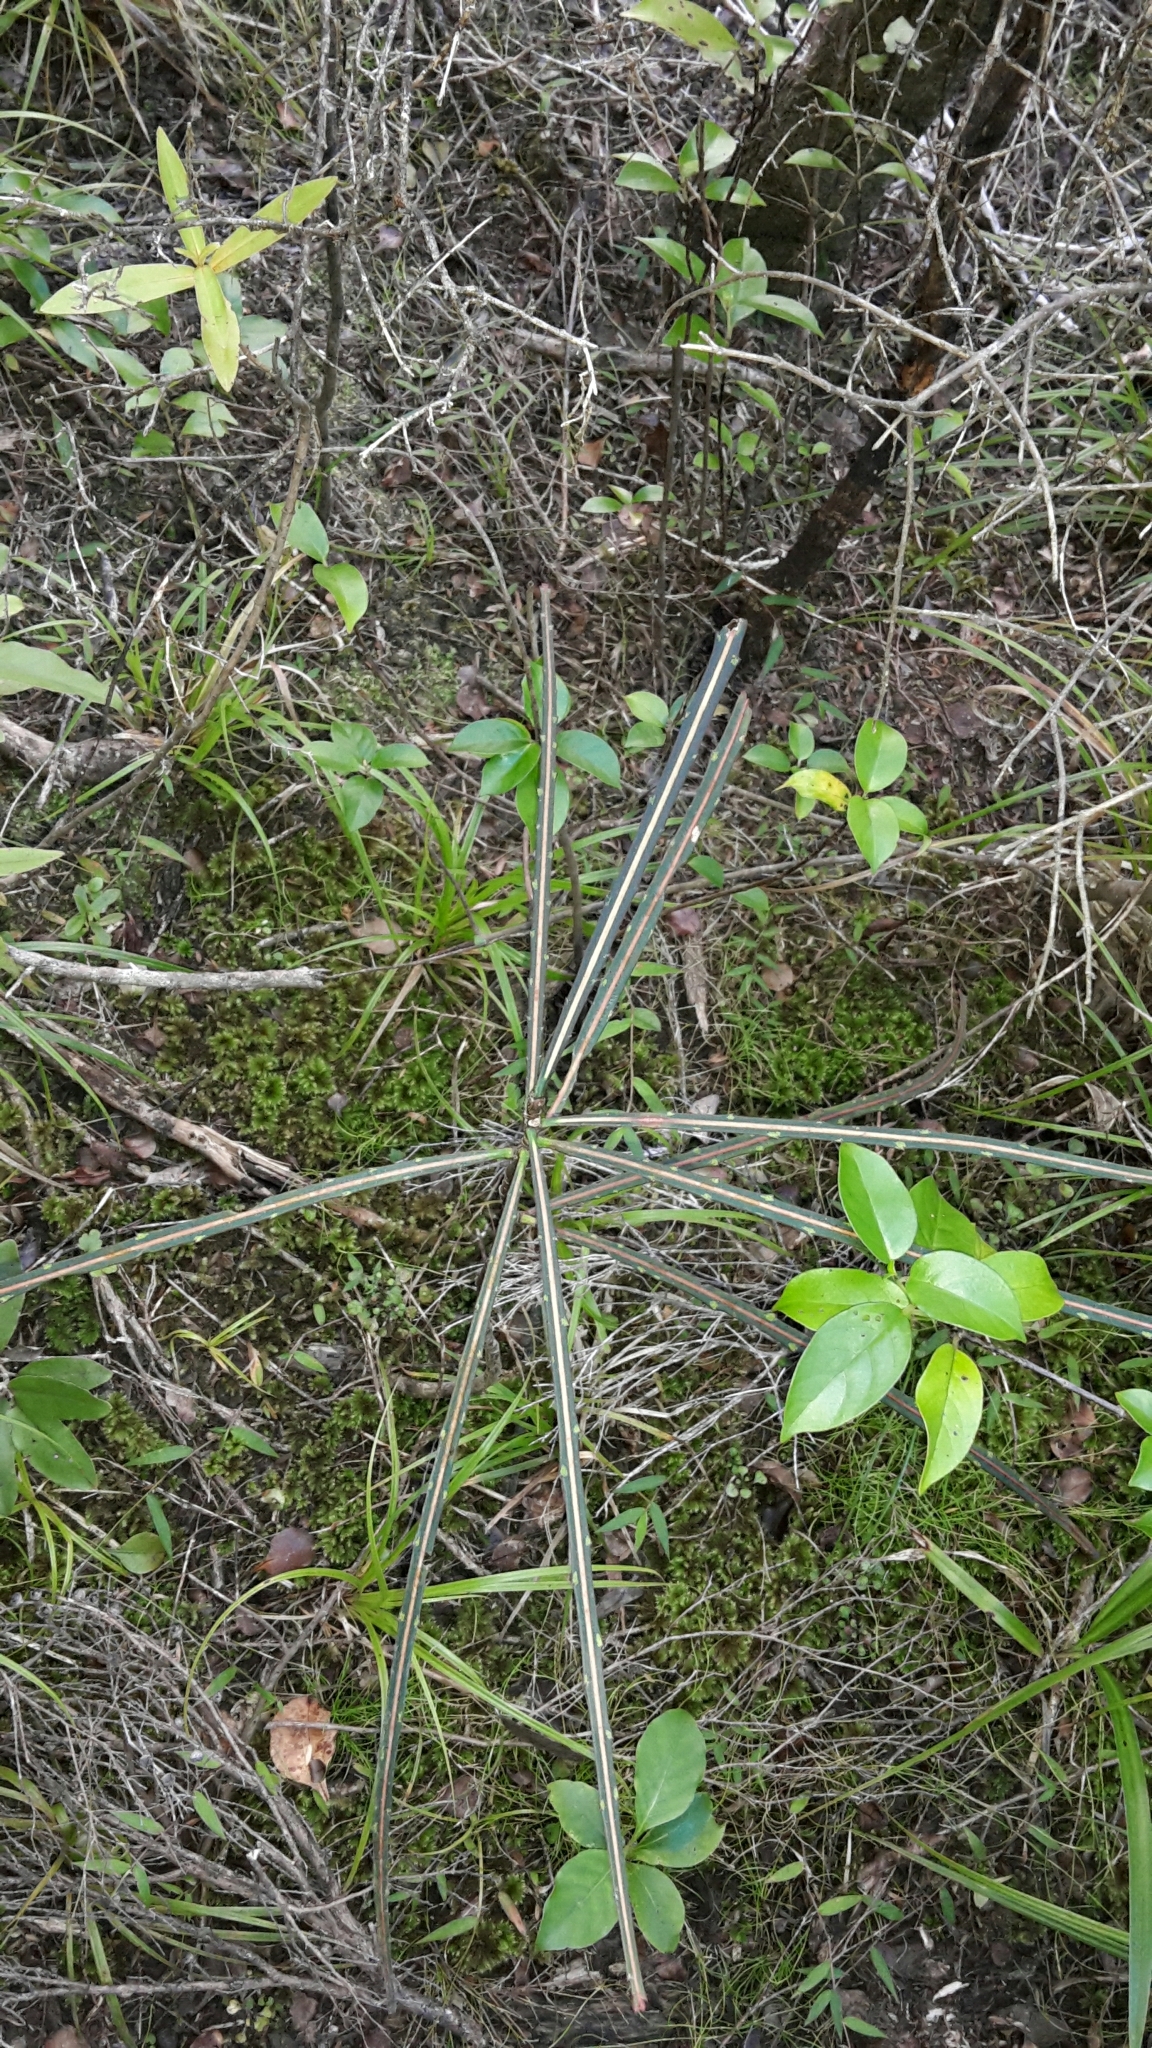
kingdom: Plantae
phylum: Tracheophyta
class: Magnoliopsida
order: Apiales
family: Araliaceae
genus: Pseudopanax
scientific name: Pseudopanax crassifolius
